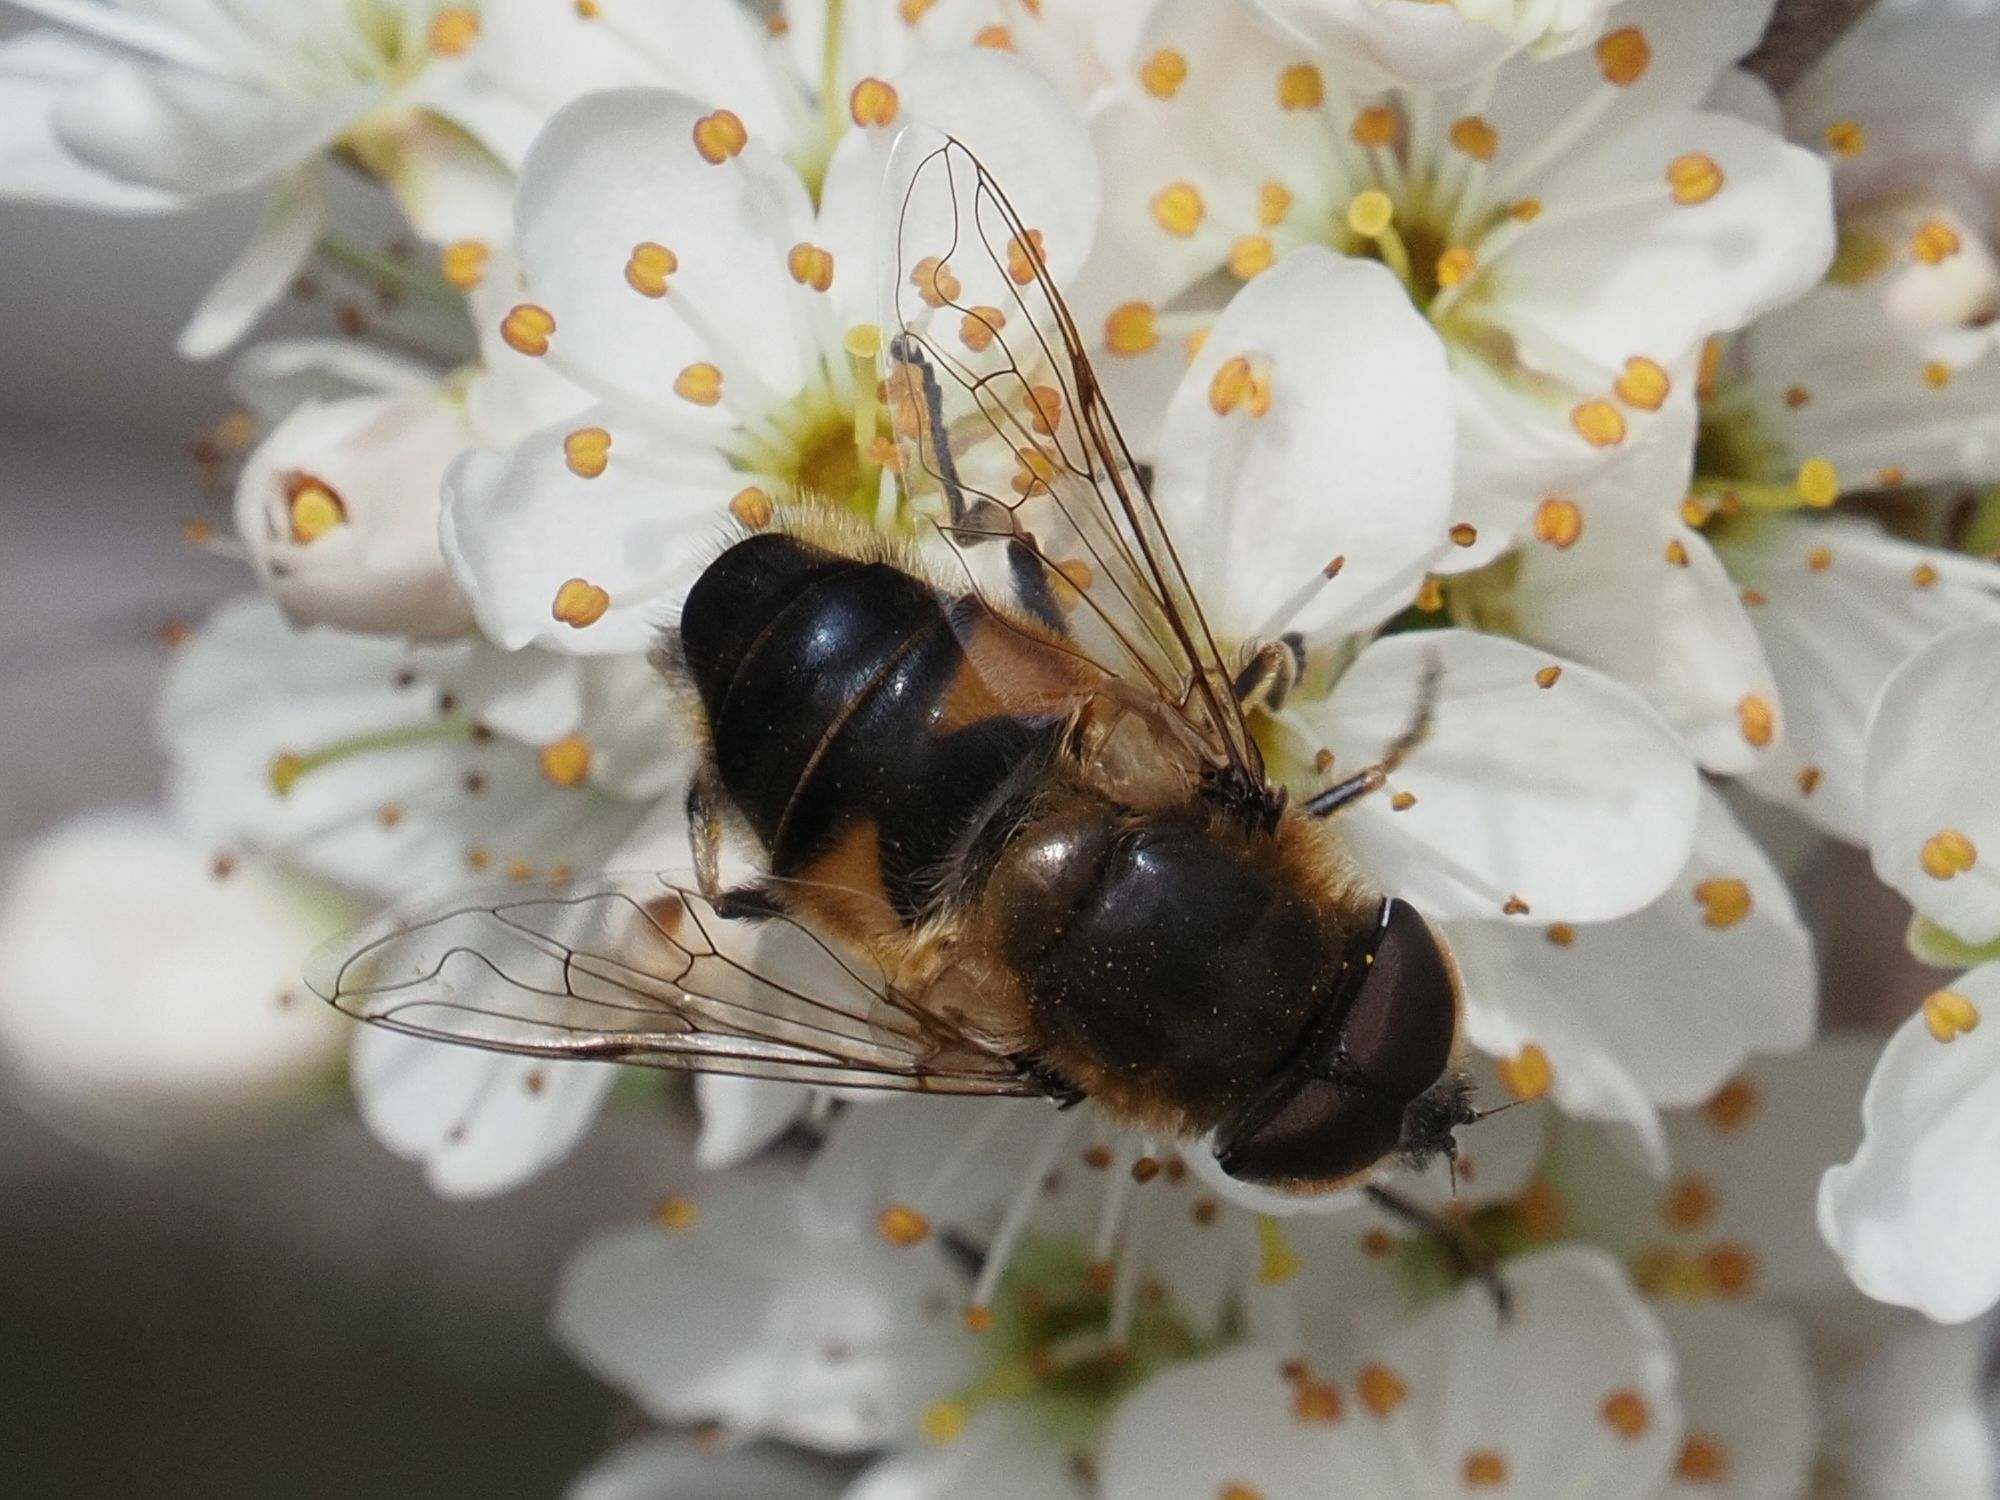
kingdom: Animalia
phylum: Arthropoda
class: Insecta
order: Diptera
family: Syrphidae
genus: Eristalis
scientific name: Eristalis pertinax
